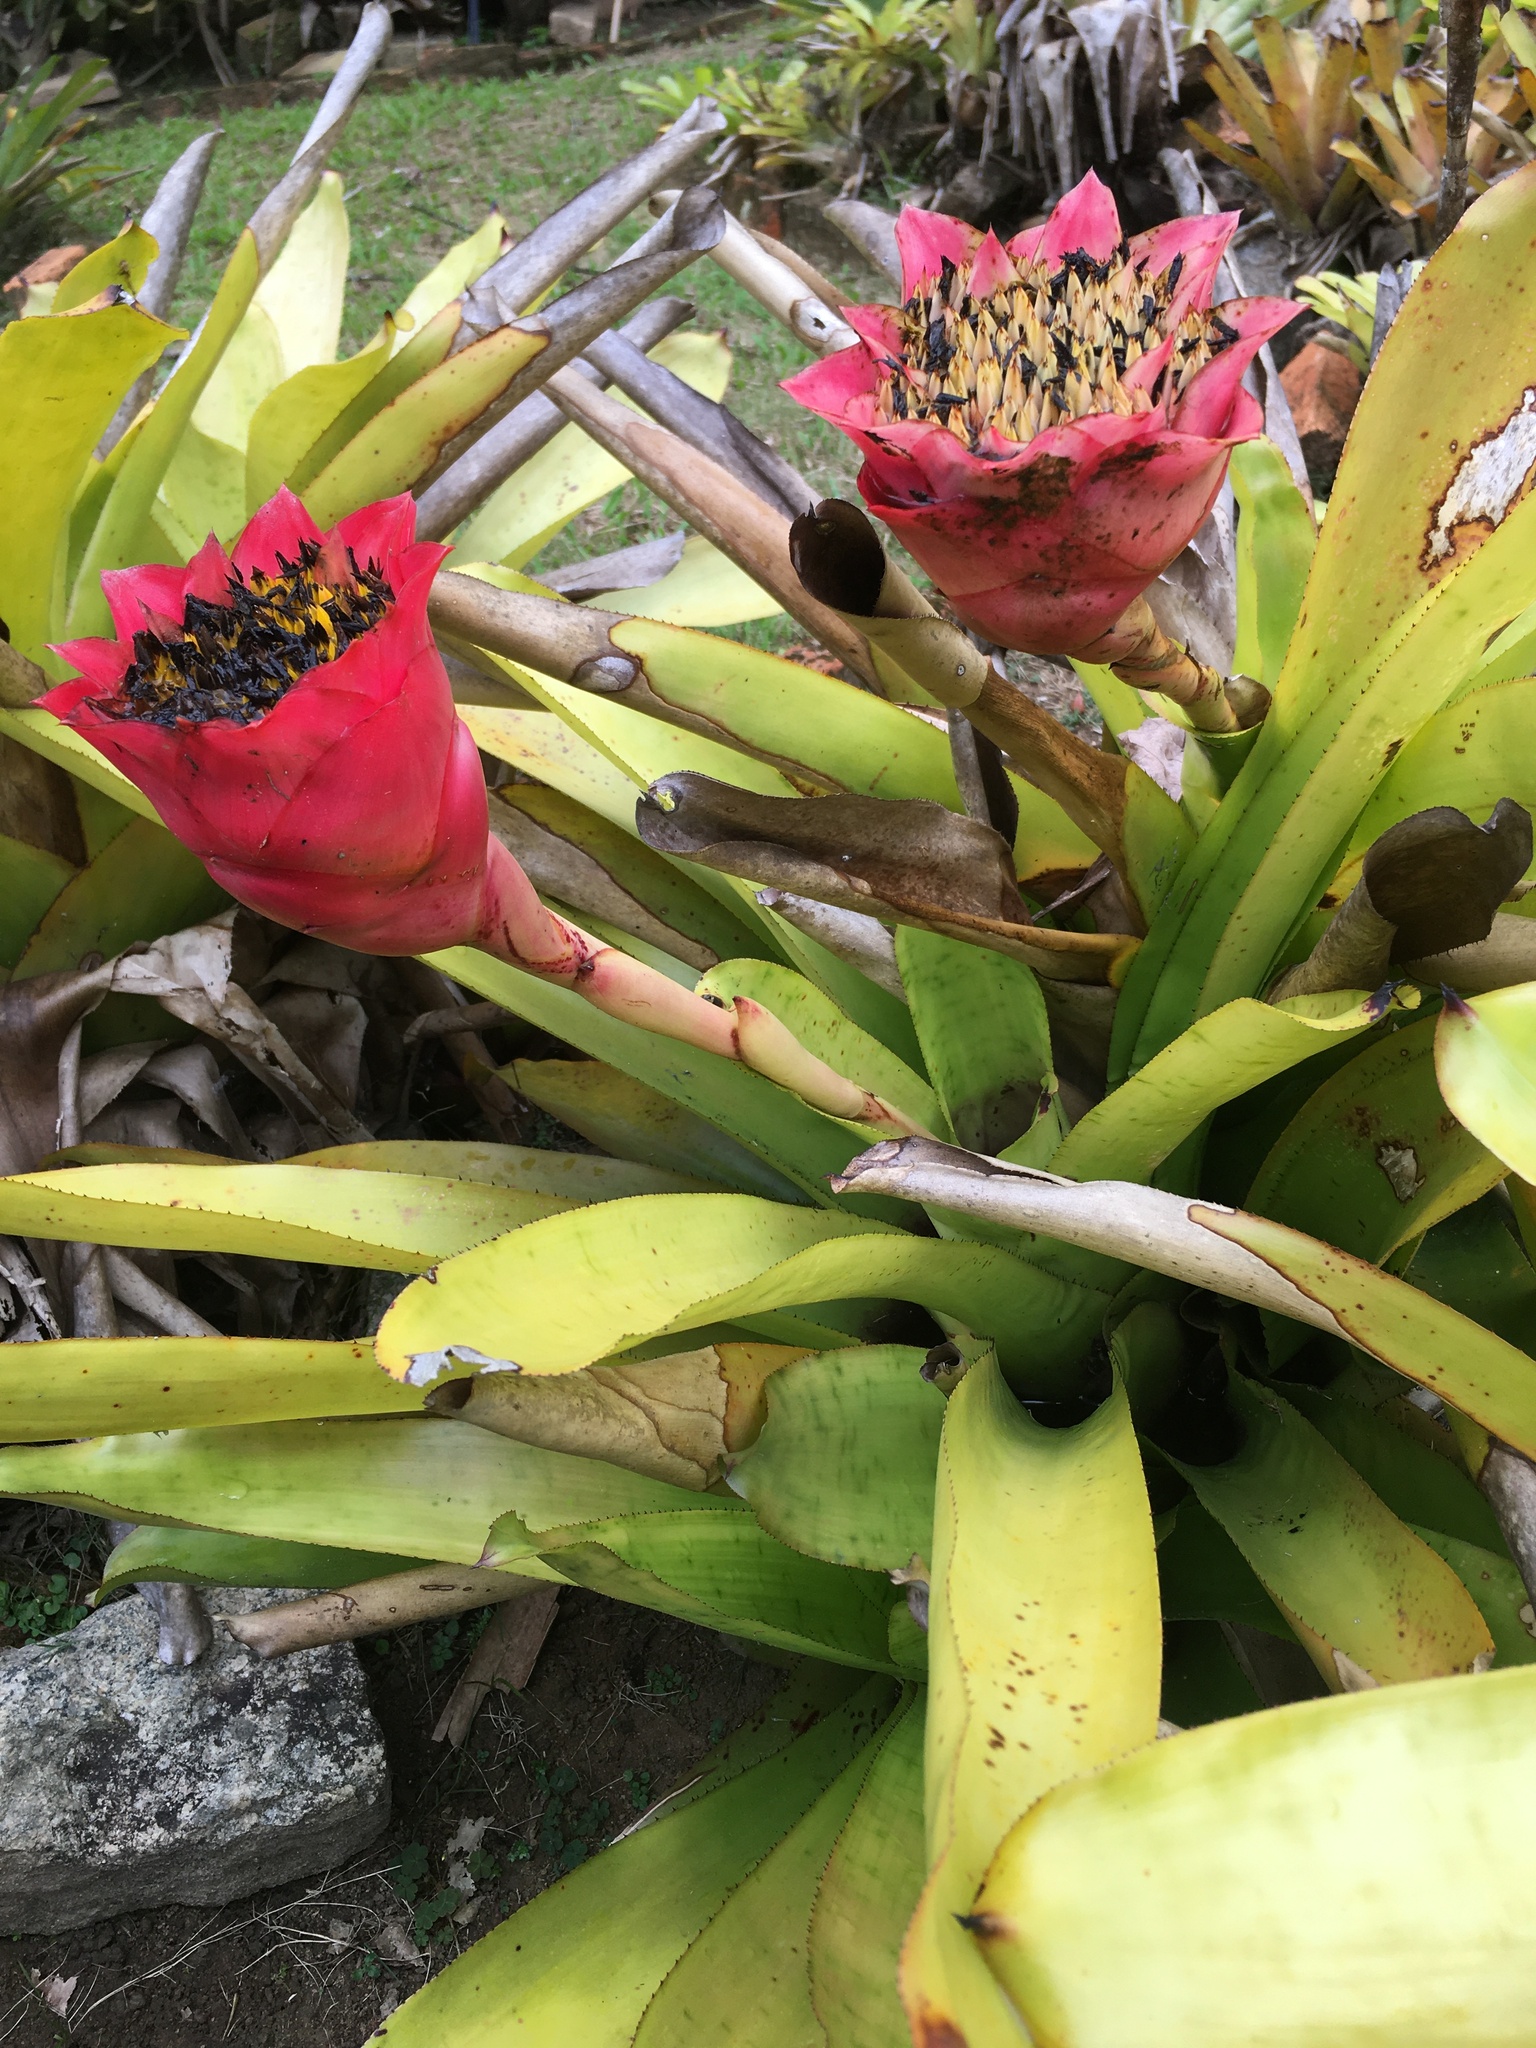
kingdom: Plantae
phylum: Tracheophyta
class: Liliopsida
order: Poales
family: Bromeliaceae
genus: Canistrum
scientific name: Canistrum aurantiacum
